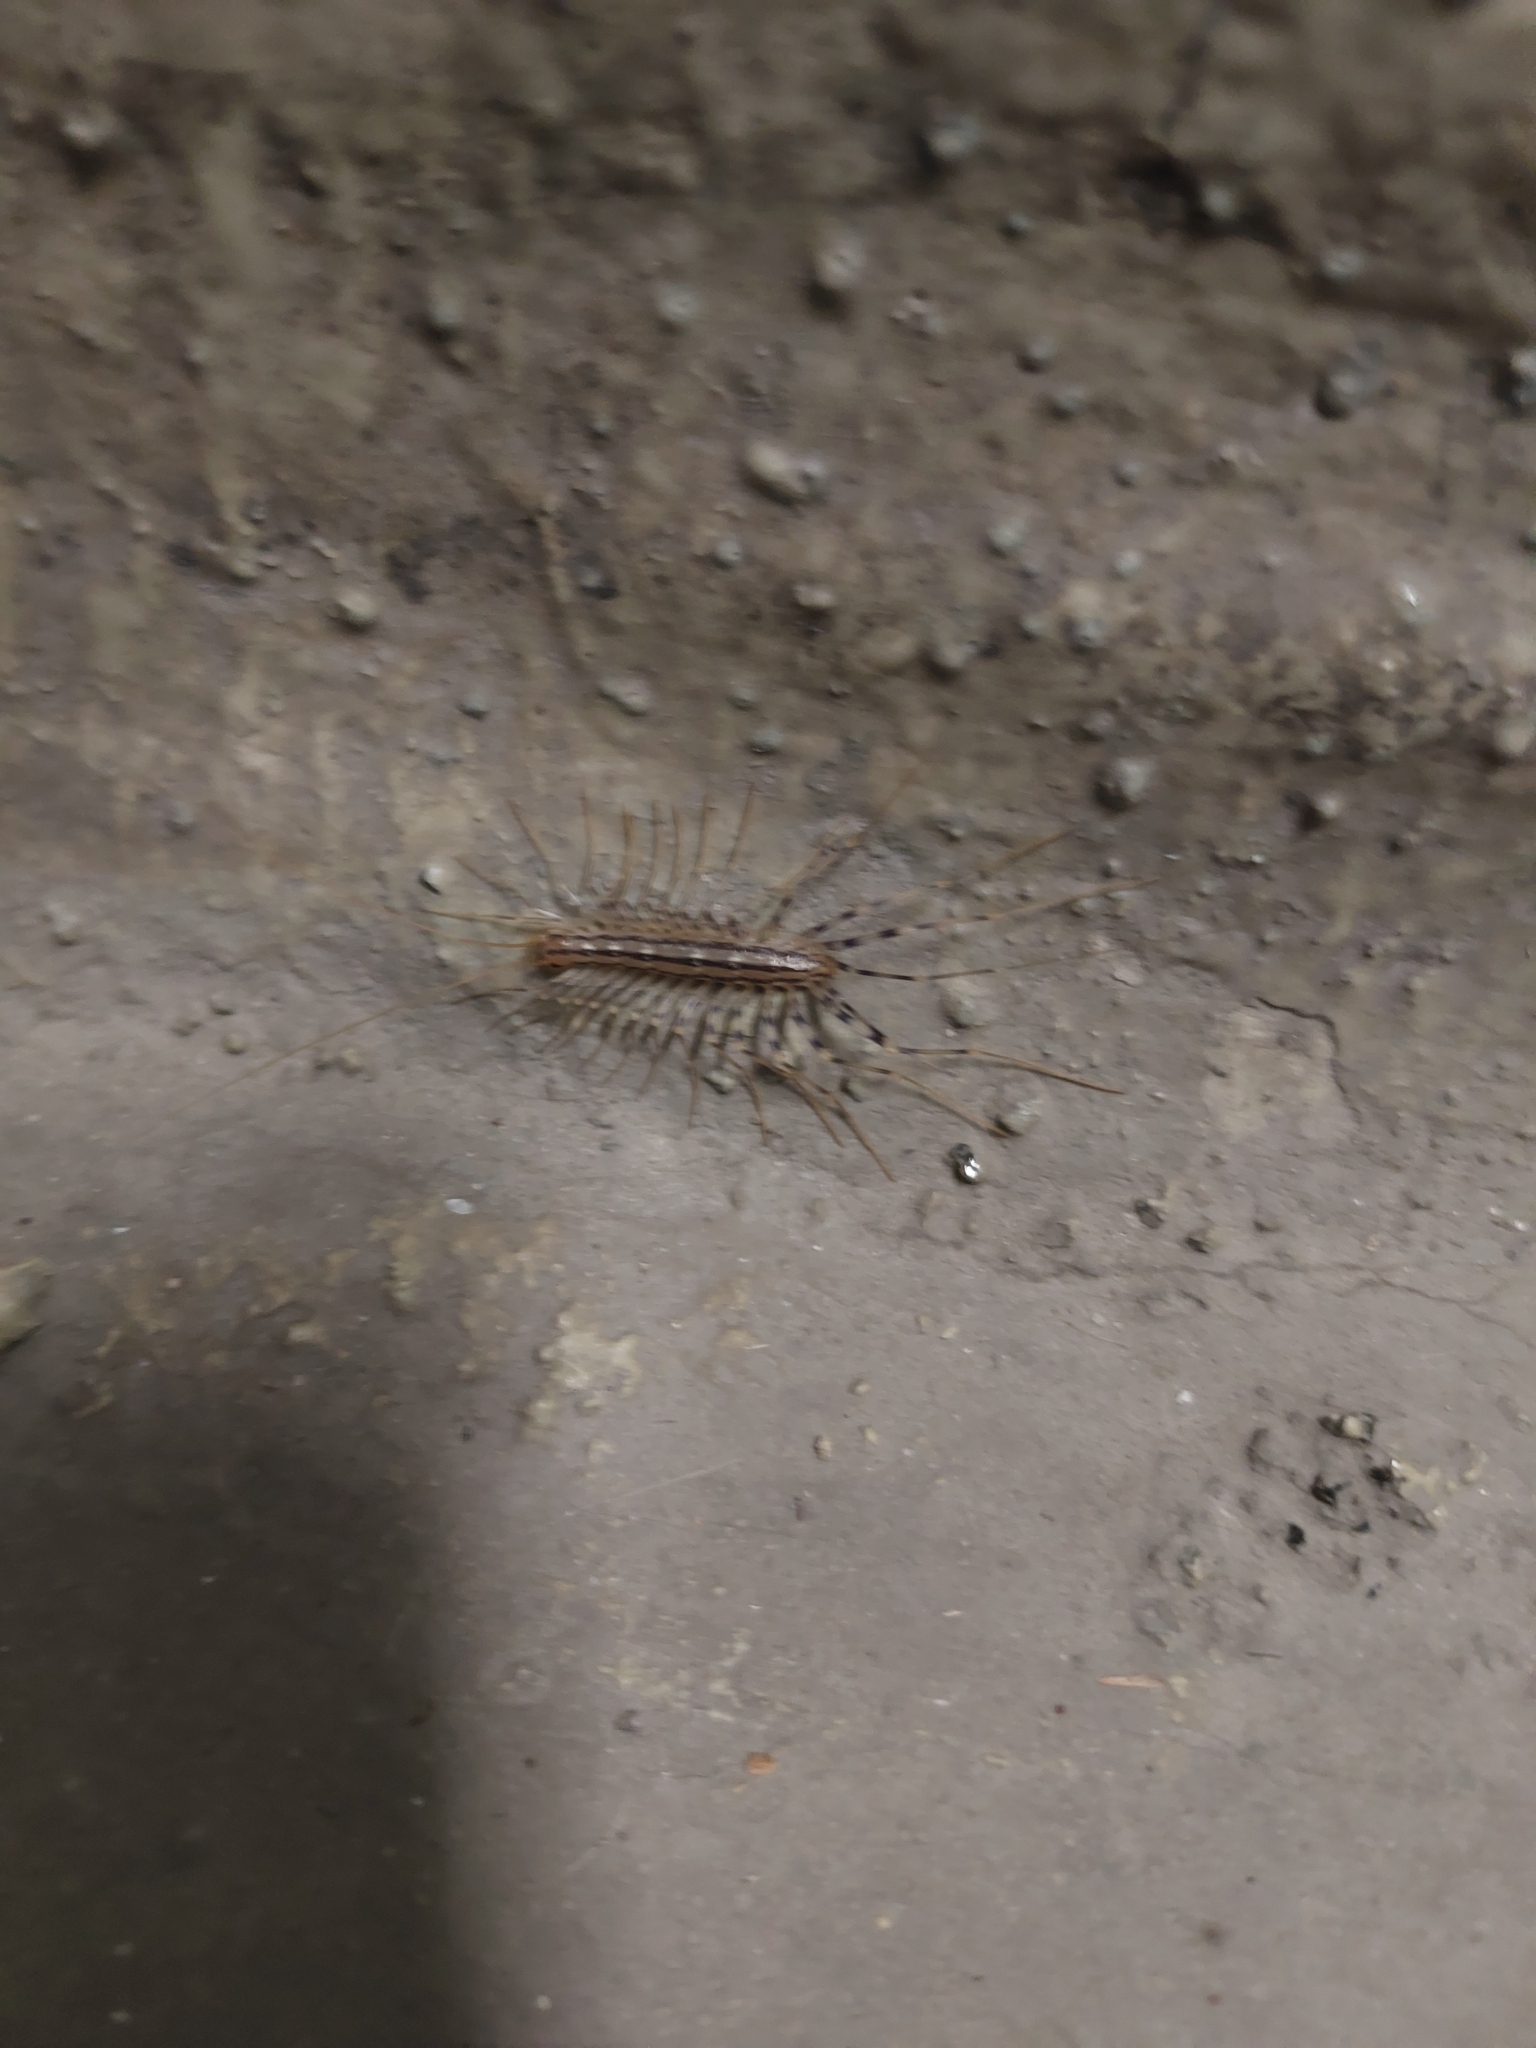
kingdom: Animalia
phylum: Arthropoda
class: Chilopoda
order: Scutigeromorpha
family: Scutigeridae
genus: Scutigera
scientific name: Scutigera coleoptrata
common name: House centipede
